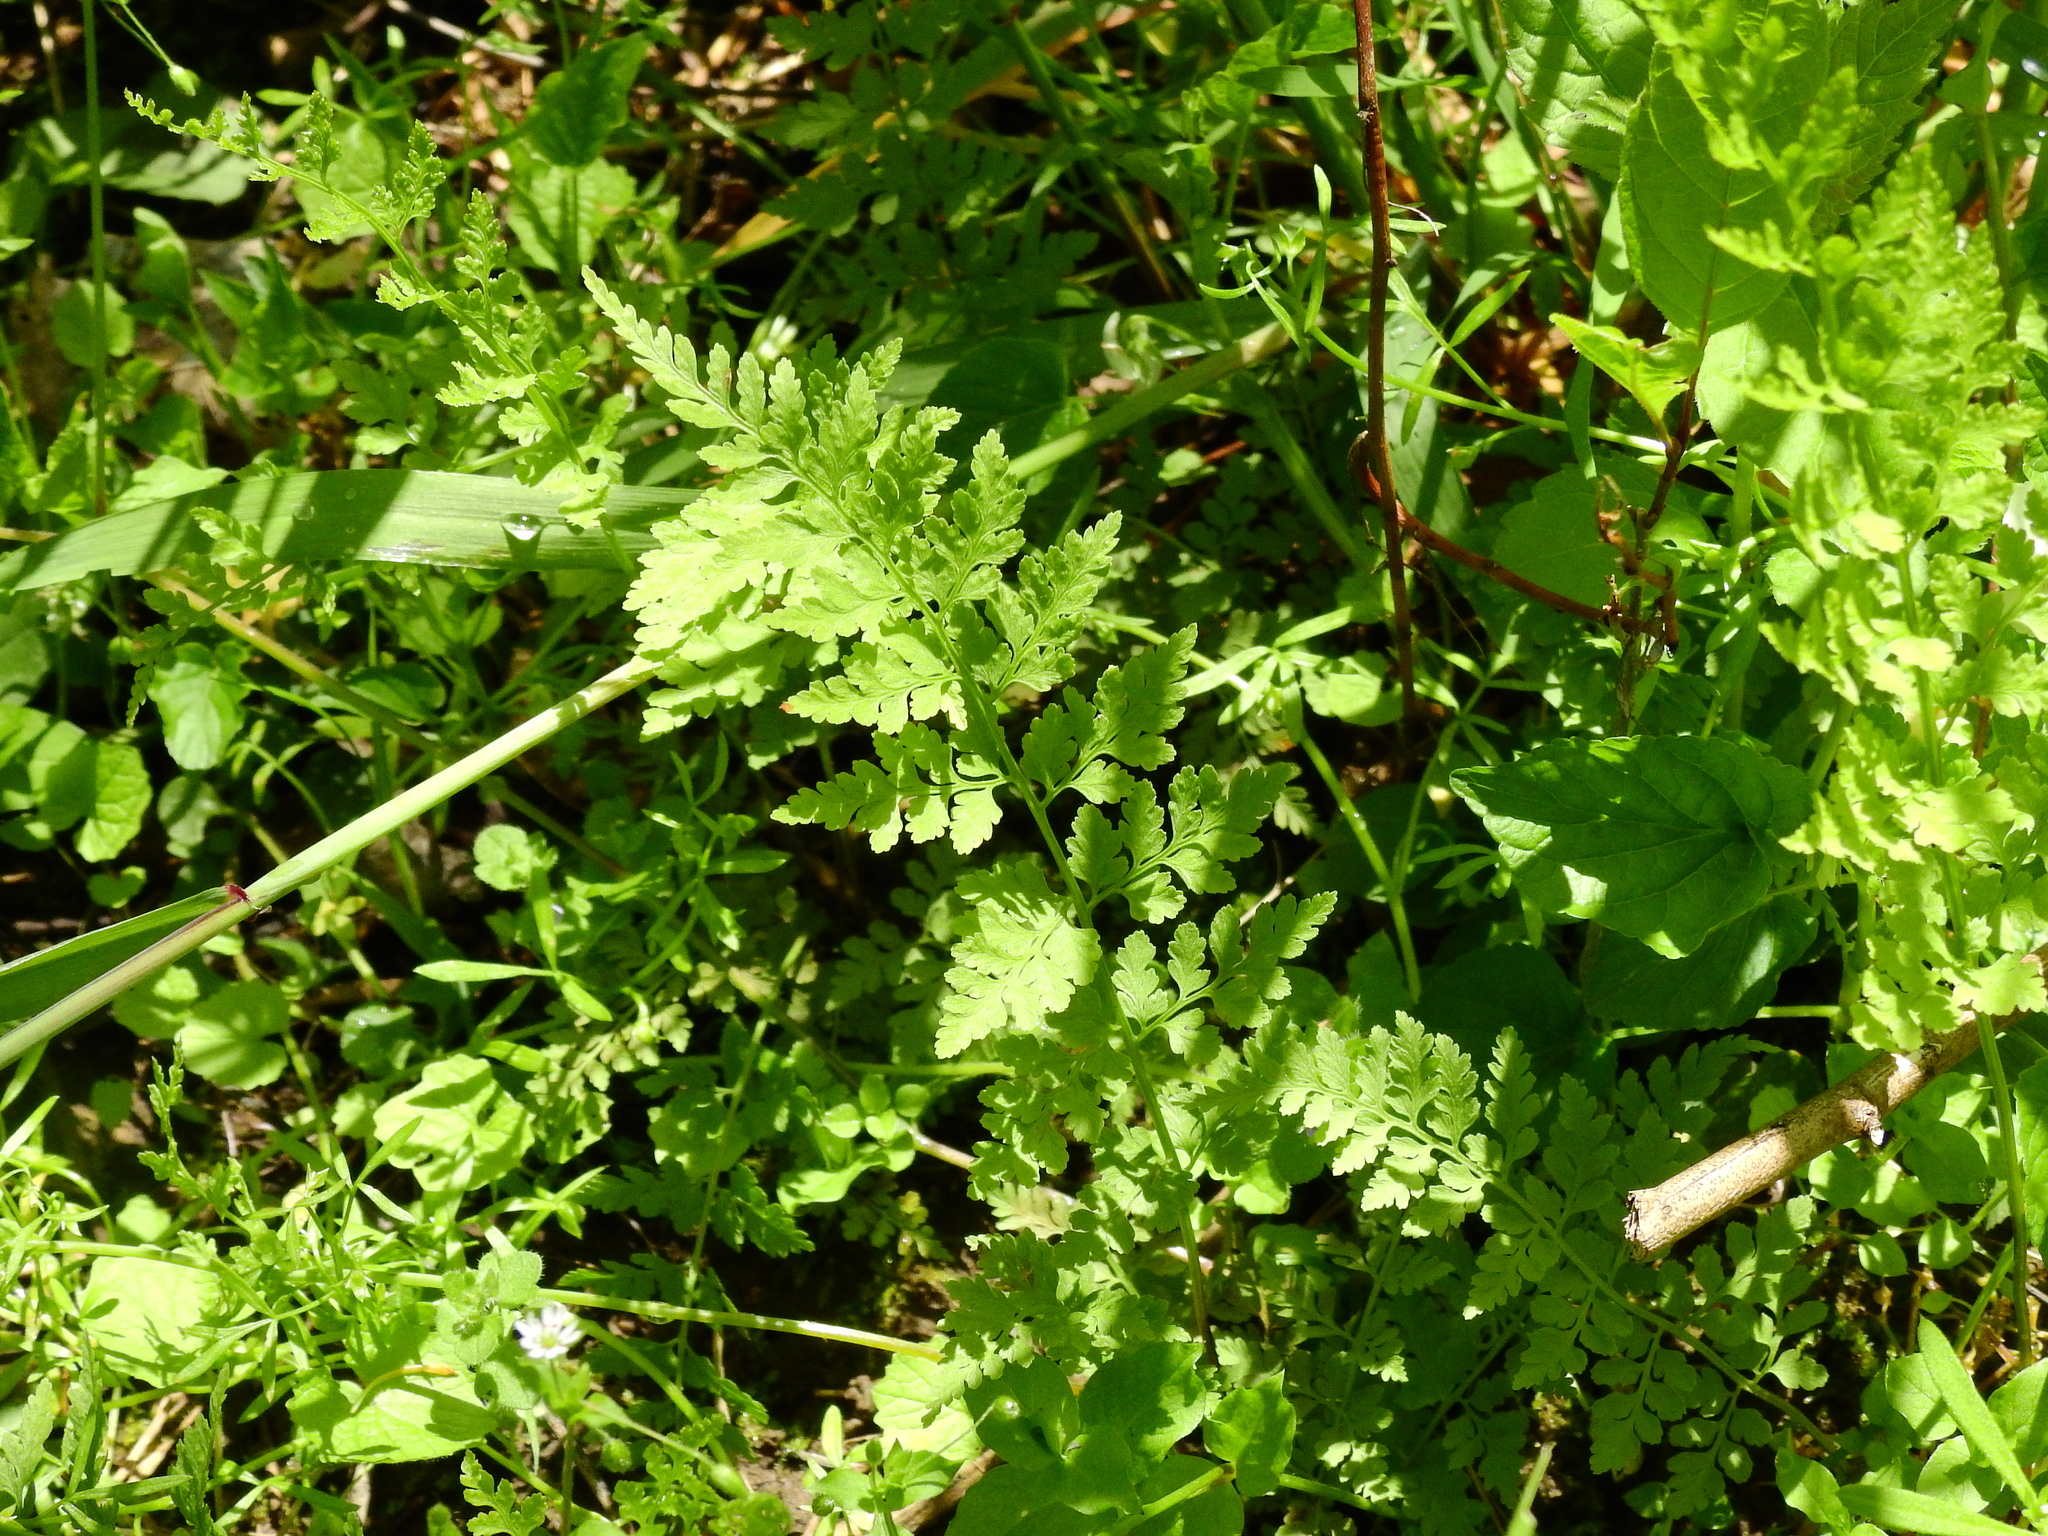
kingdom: Plantae
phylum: Tracheophyta
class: Polypodiopsida
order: Polypodiales
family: Cystopteridaceae
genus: Cystopteris
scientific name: Cystopteris protrusa
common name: Lowland brittle fern
